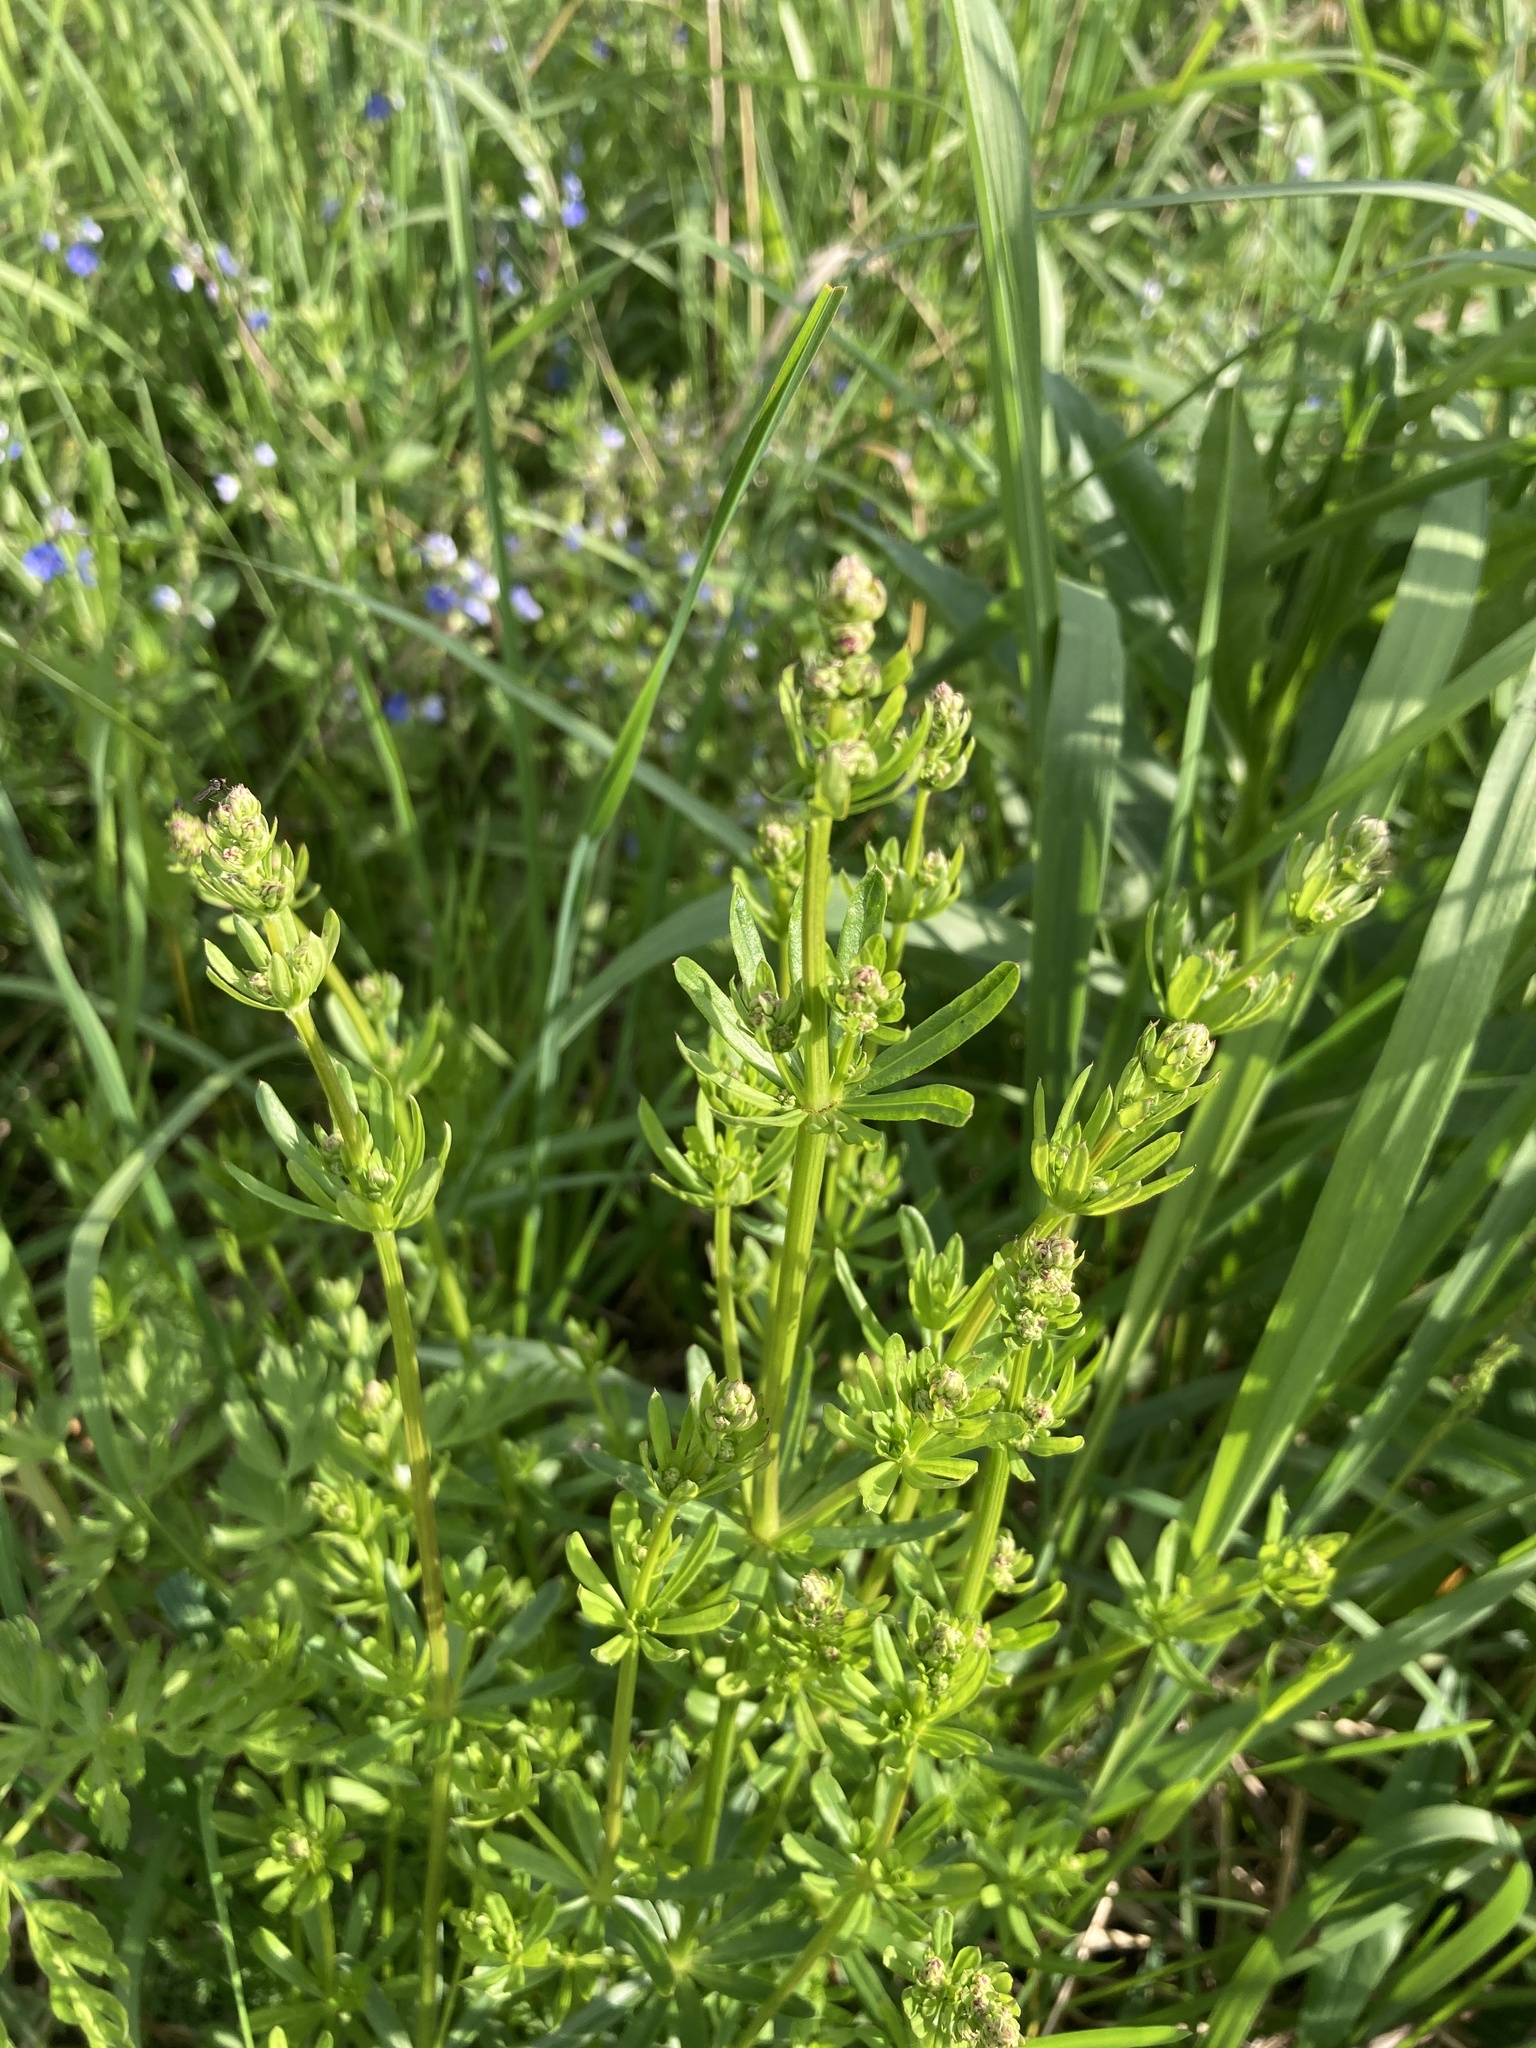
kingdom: Plantae
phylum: Tracheophyta
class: Magnoliopsida
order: Gentianales
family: Rubiaceae
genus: Galium
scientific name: Galium mollugo
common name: Hedge bedstraw
